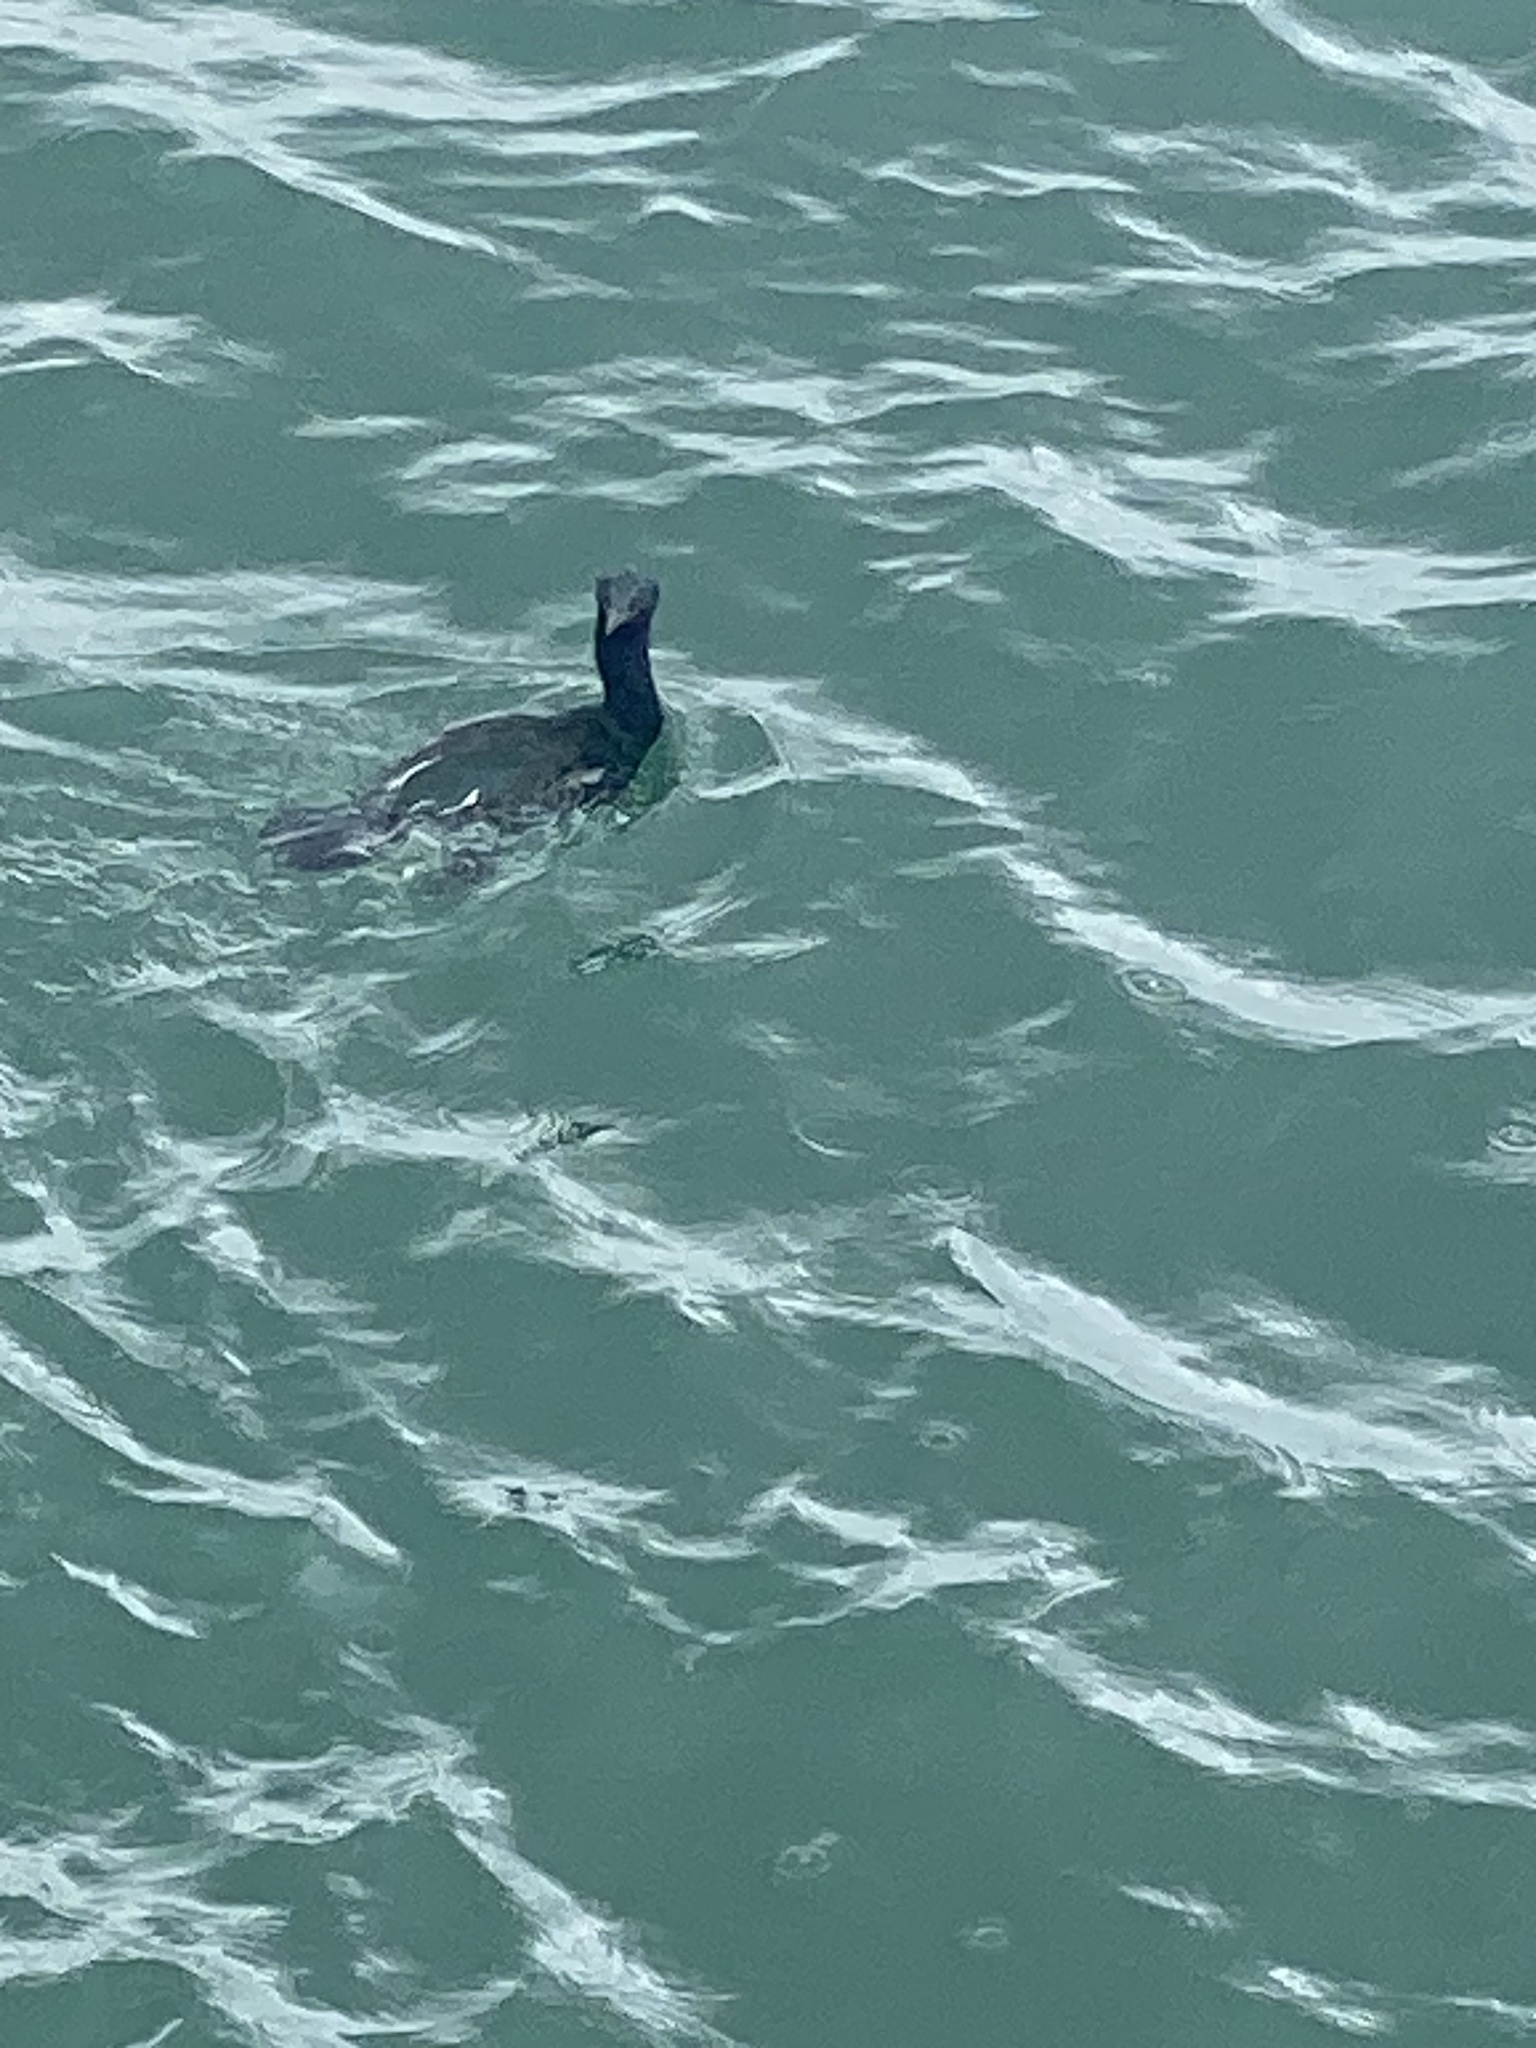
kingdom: Animalia
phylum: Chordata
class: Aves
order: Suliformes
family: Phalacrocoracidae
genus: Phalacrocorax
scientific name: Phalacrocorax pelagicus
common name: Pelagic cormorant
